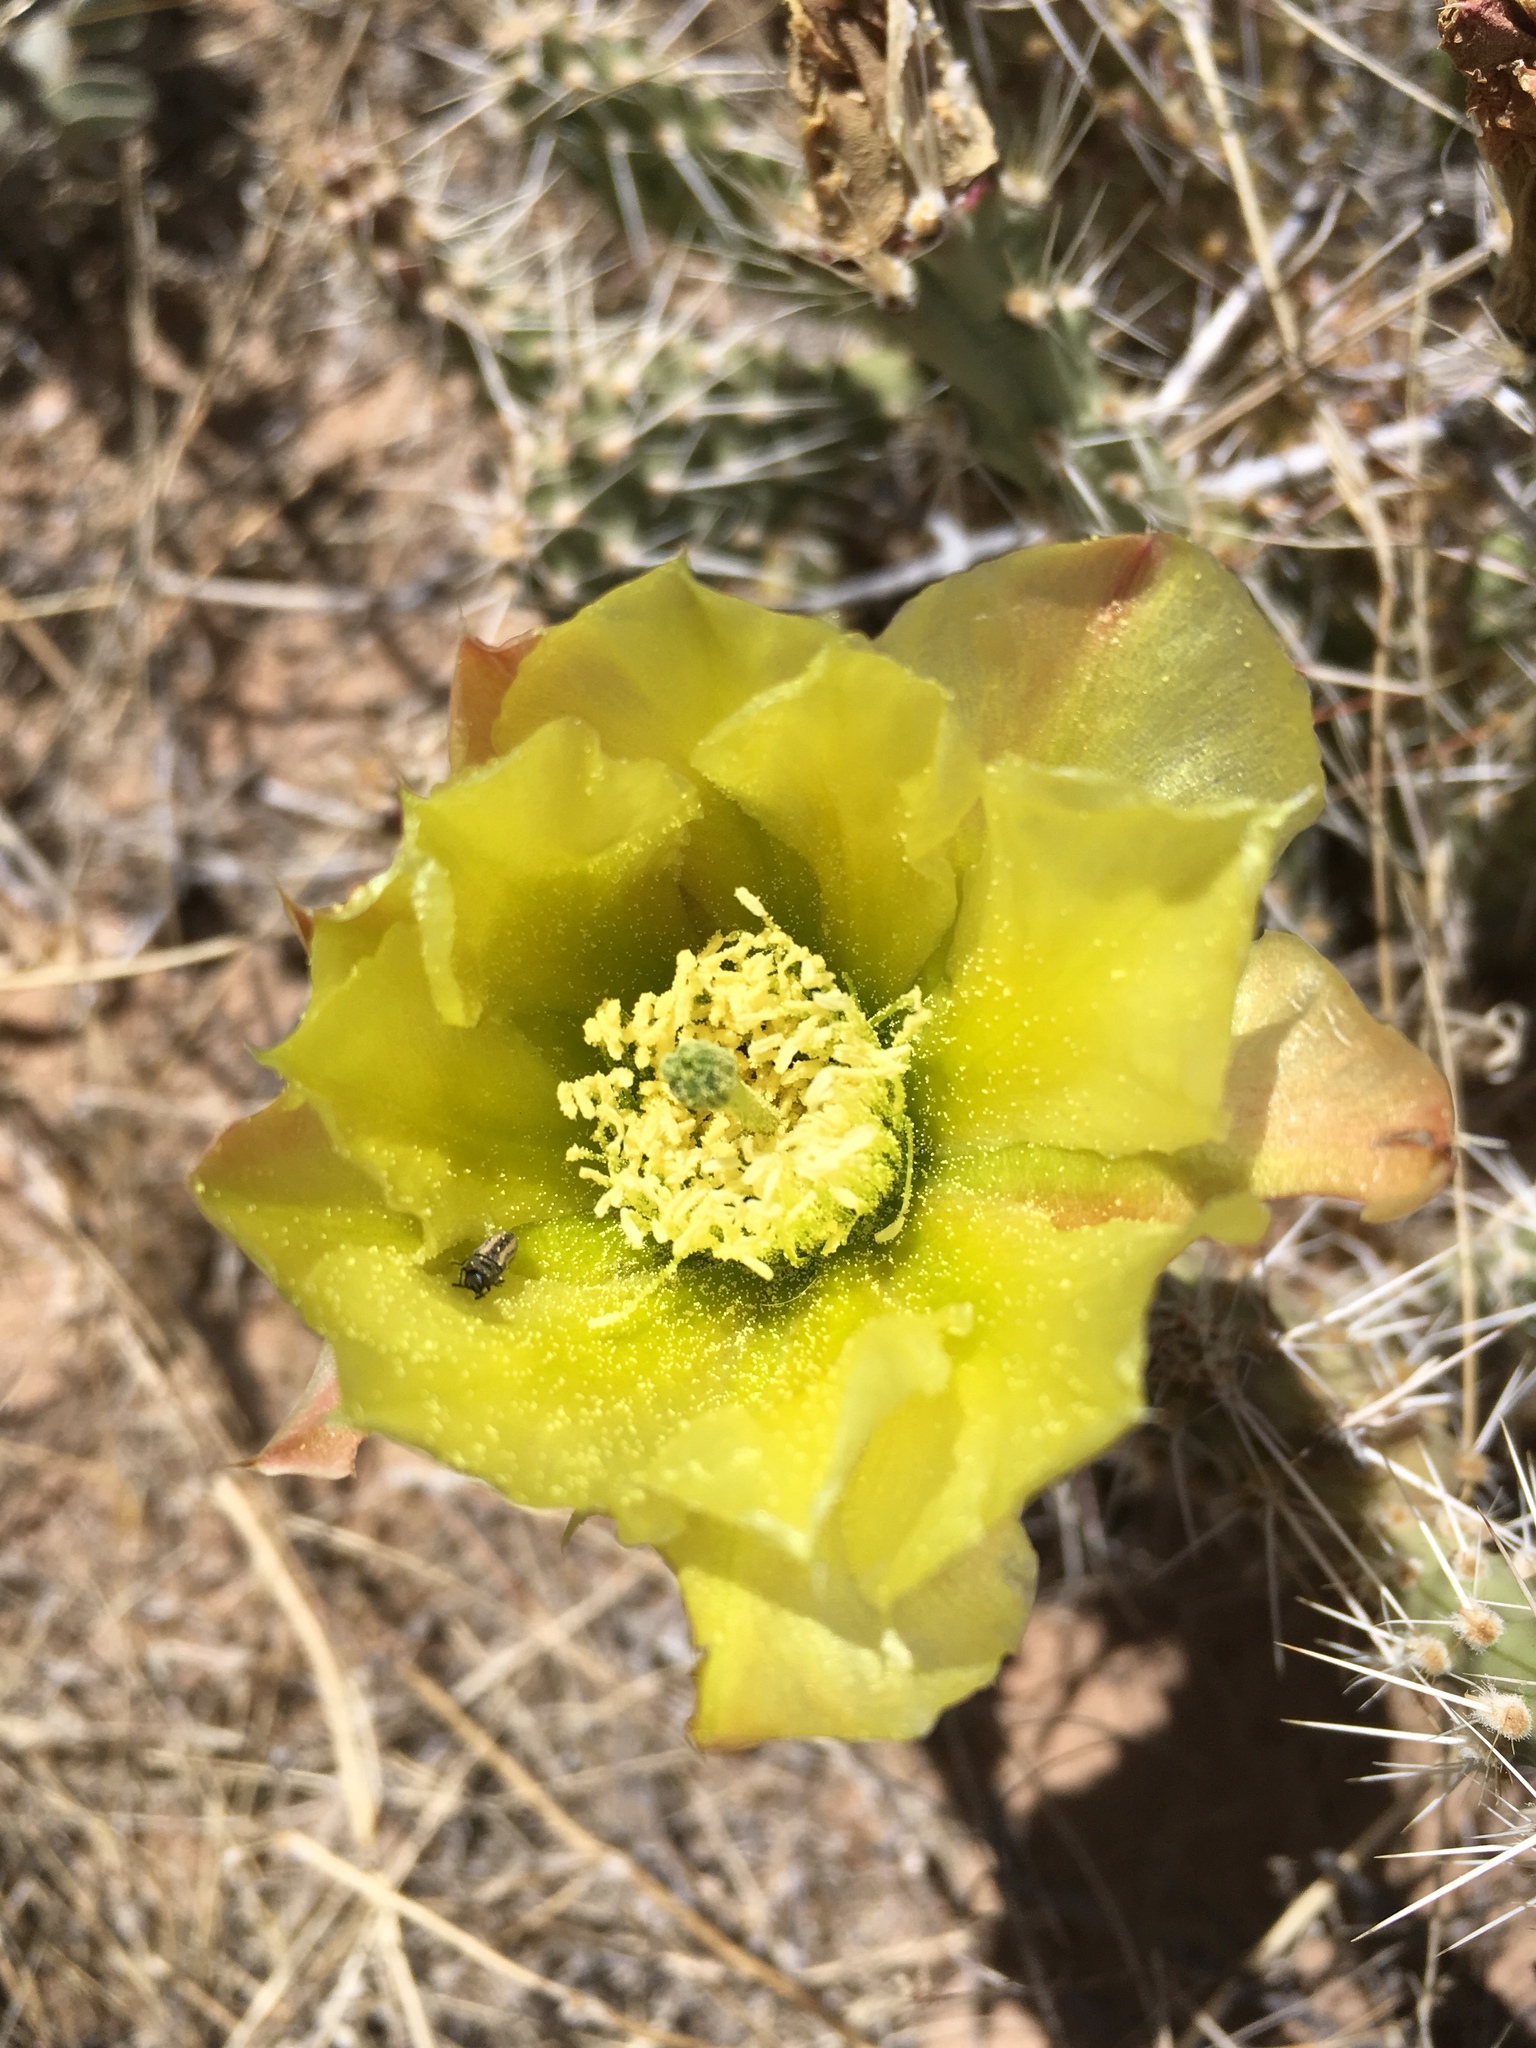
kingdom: Animalia
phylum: Arthropoda
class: Insecta
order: Coleoptera
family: Buprestidae
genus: Acmaeodera
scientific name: Acmaeodera quadrivittatoides
